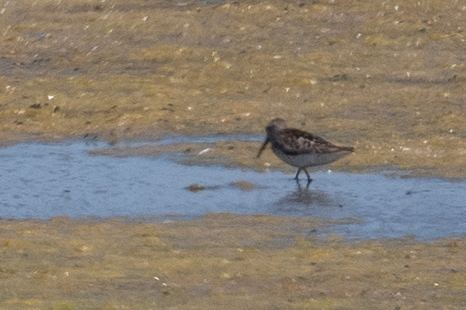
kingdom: Animalia
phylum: Chordata
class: Aves
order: Charadriiformes
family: Scolopacidae
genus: Calidris
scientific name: Calidris mauri
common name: Western sandpiper
